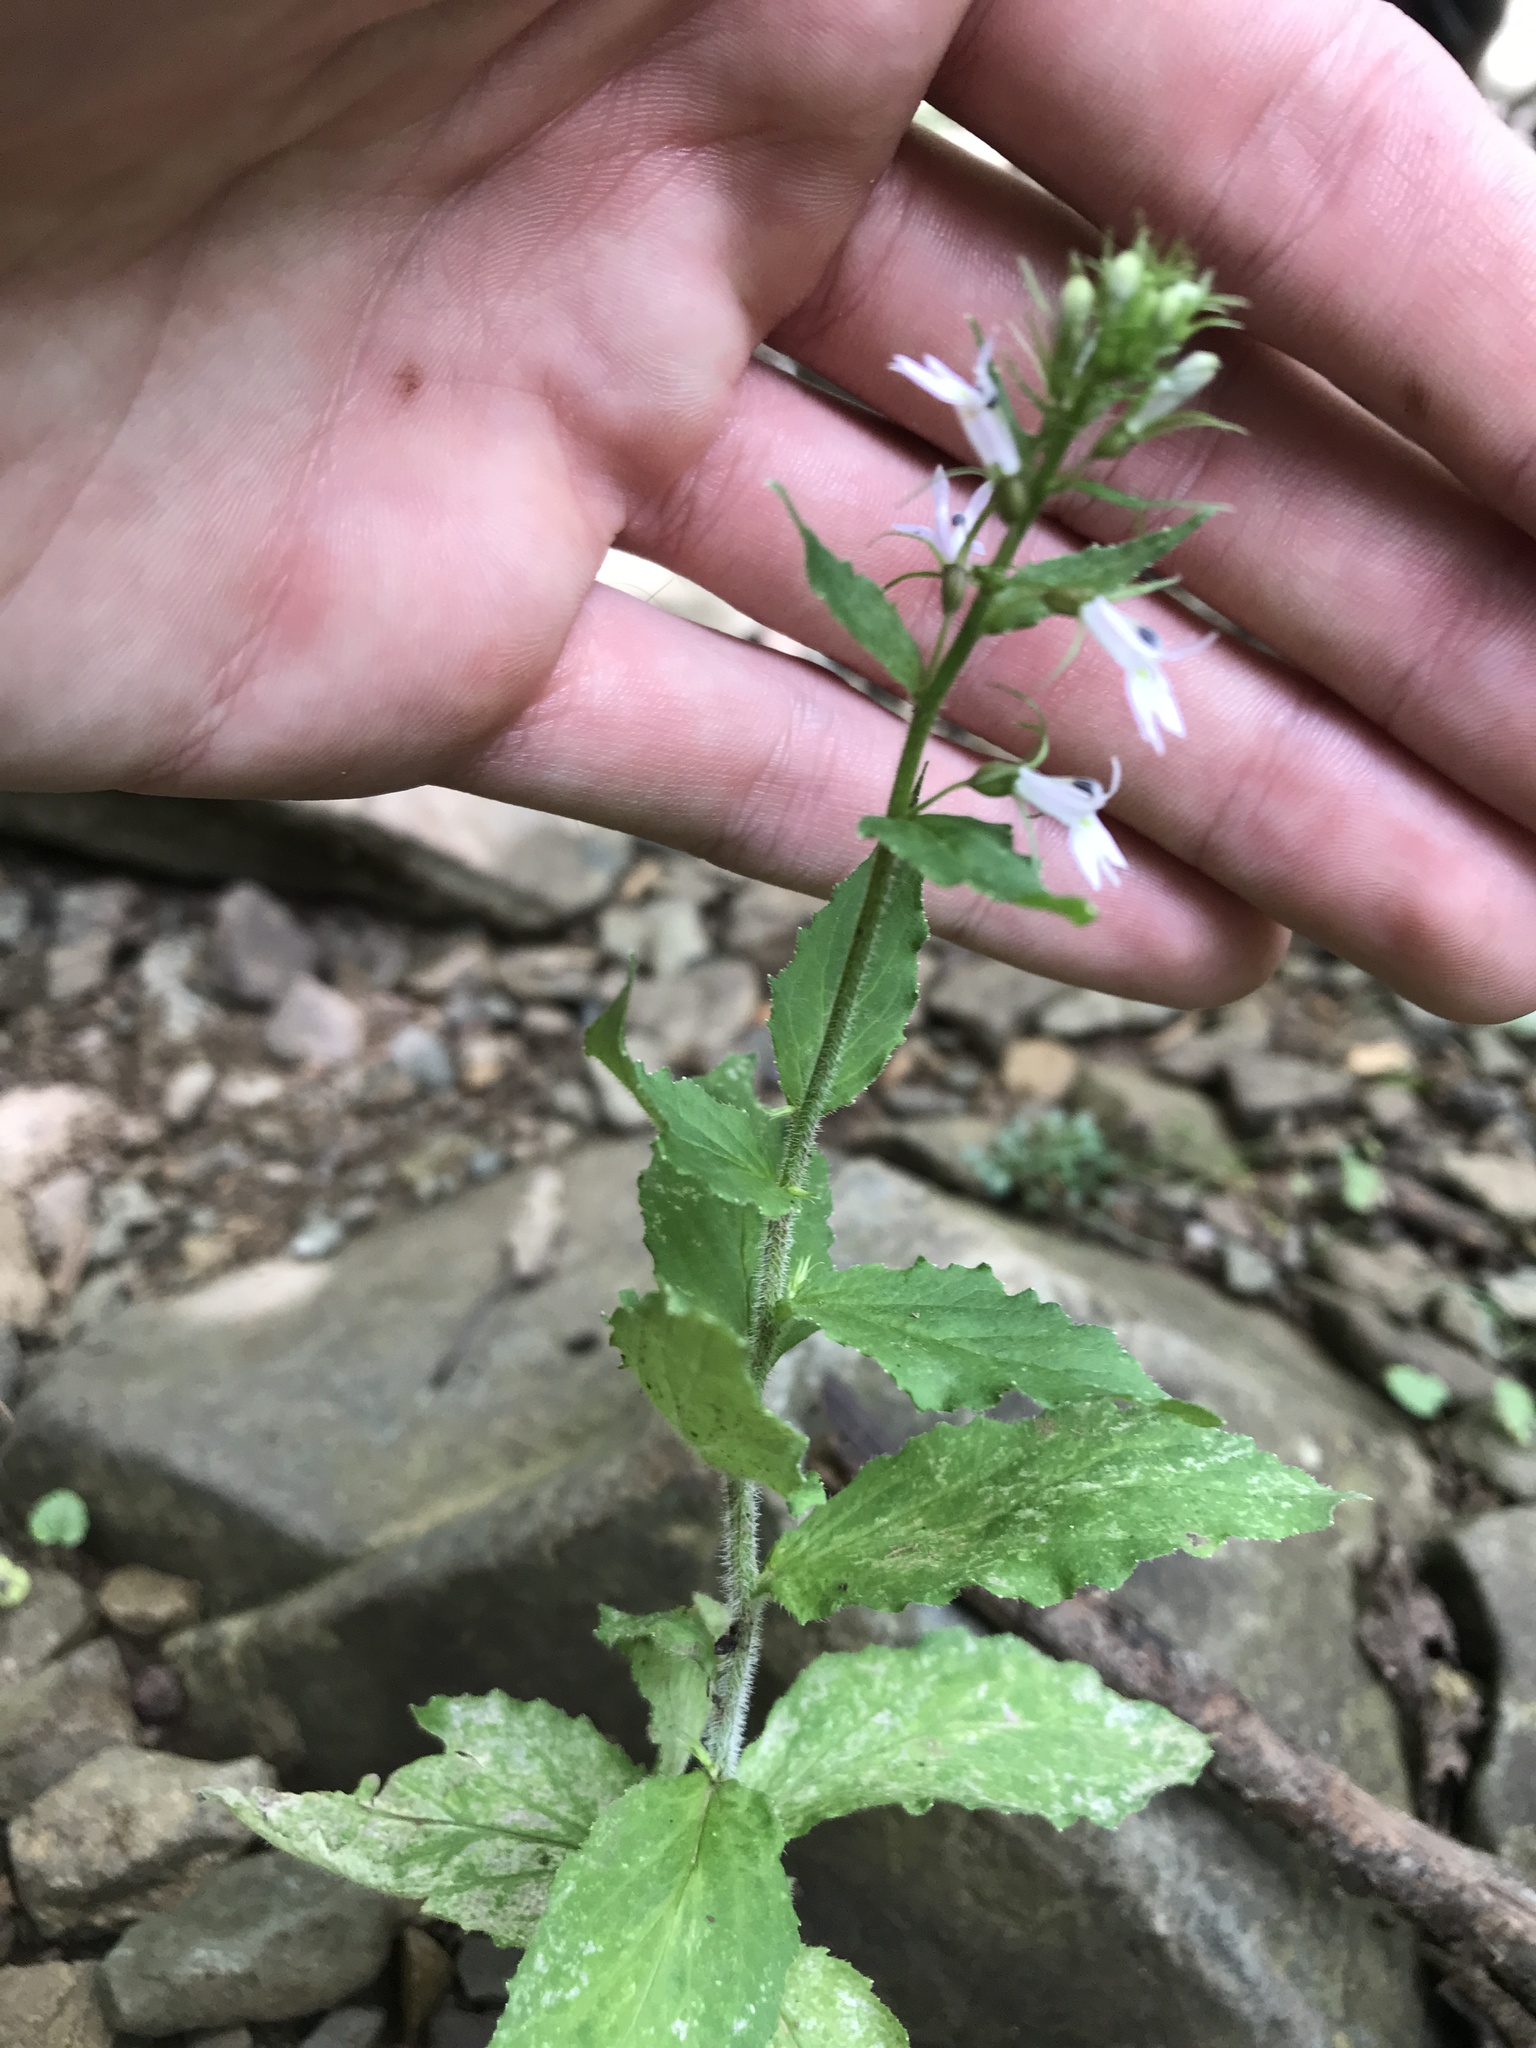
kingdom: Plantae
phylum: Tracheophyta
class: Magnoliopsida
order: Asterales
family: Campanulaceae
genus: Lobelia
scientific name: Lobelia inflata
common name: Indian tobacco
